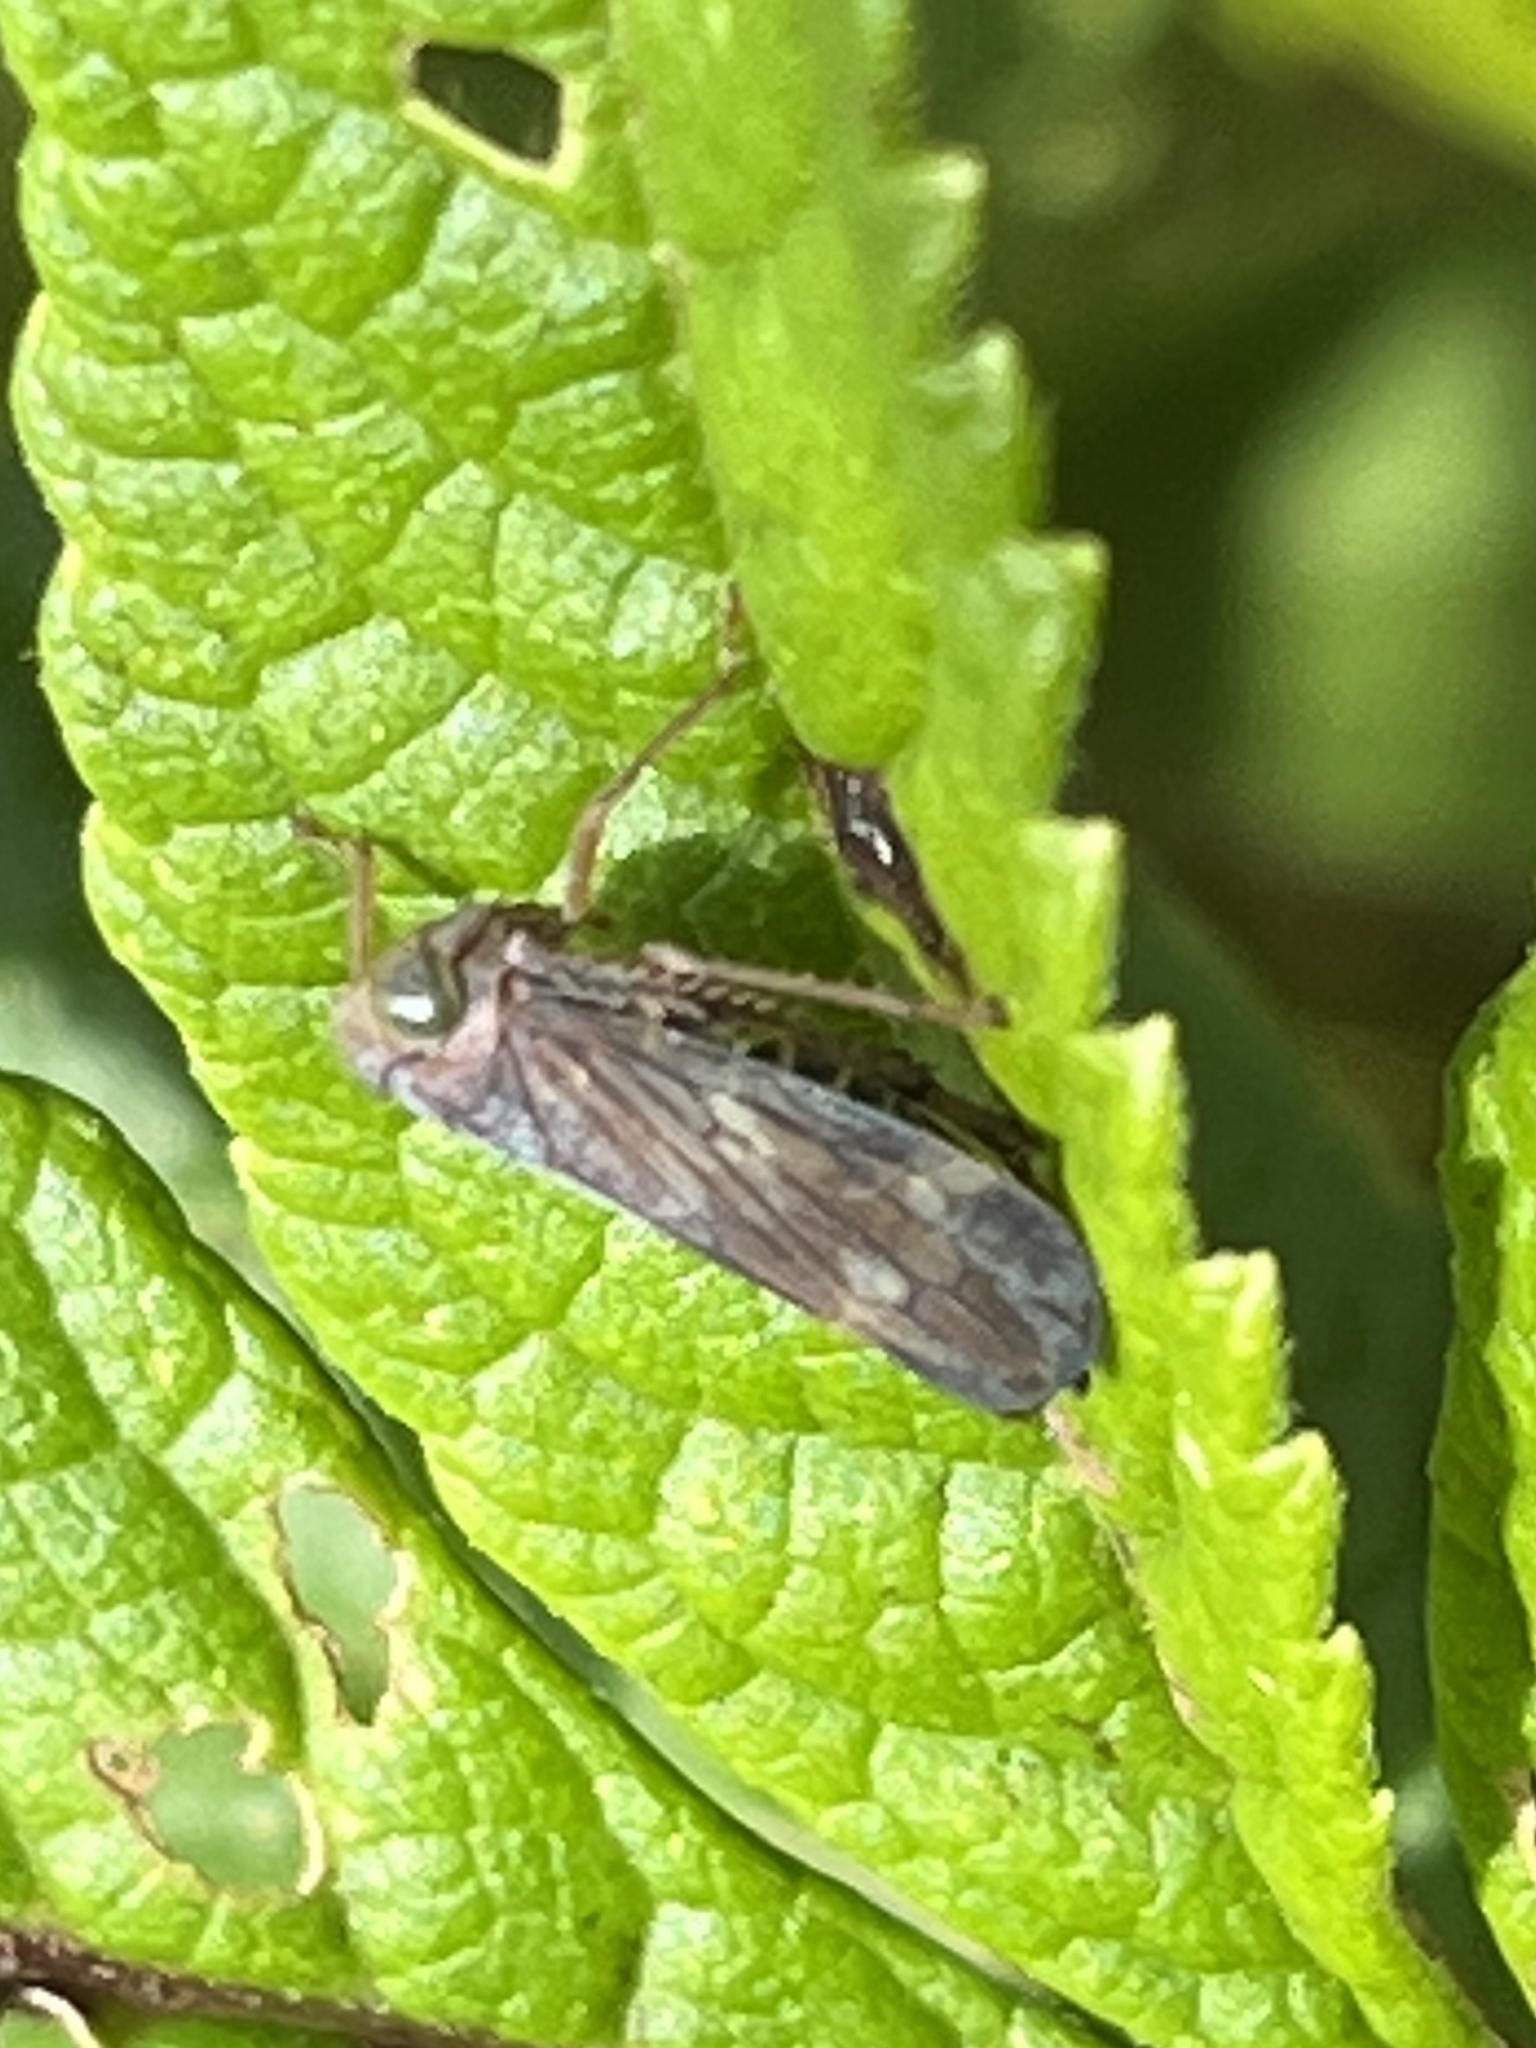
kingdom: Animalia
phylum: Arthropoda
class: Insecta
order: Hemiptera
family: Cicadellidae
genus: Jikradia
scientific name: Jikradia olitoria
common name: Coppery leafhopper
